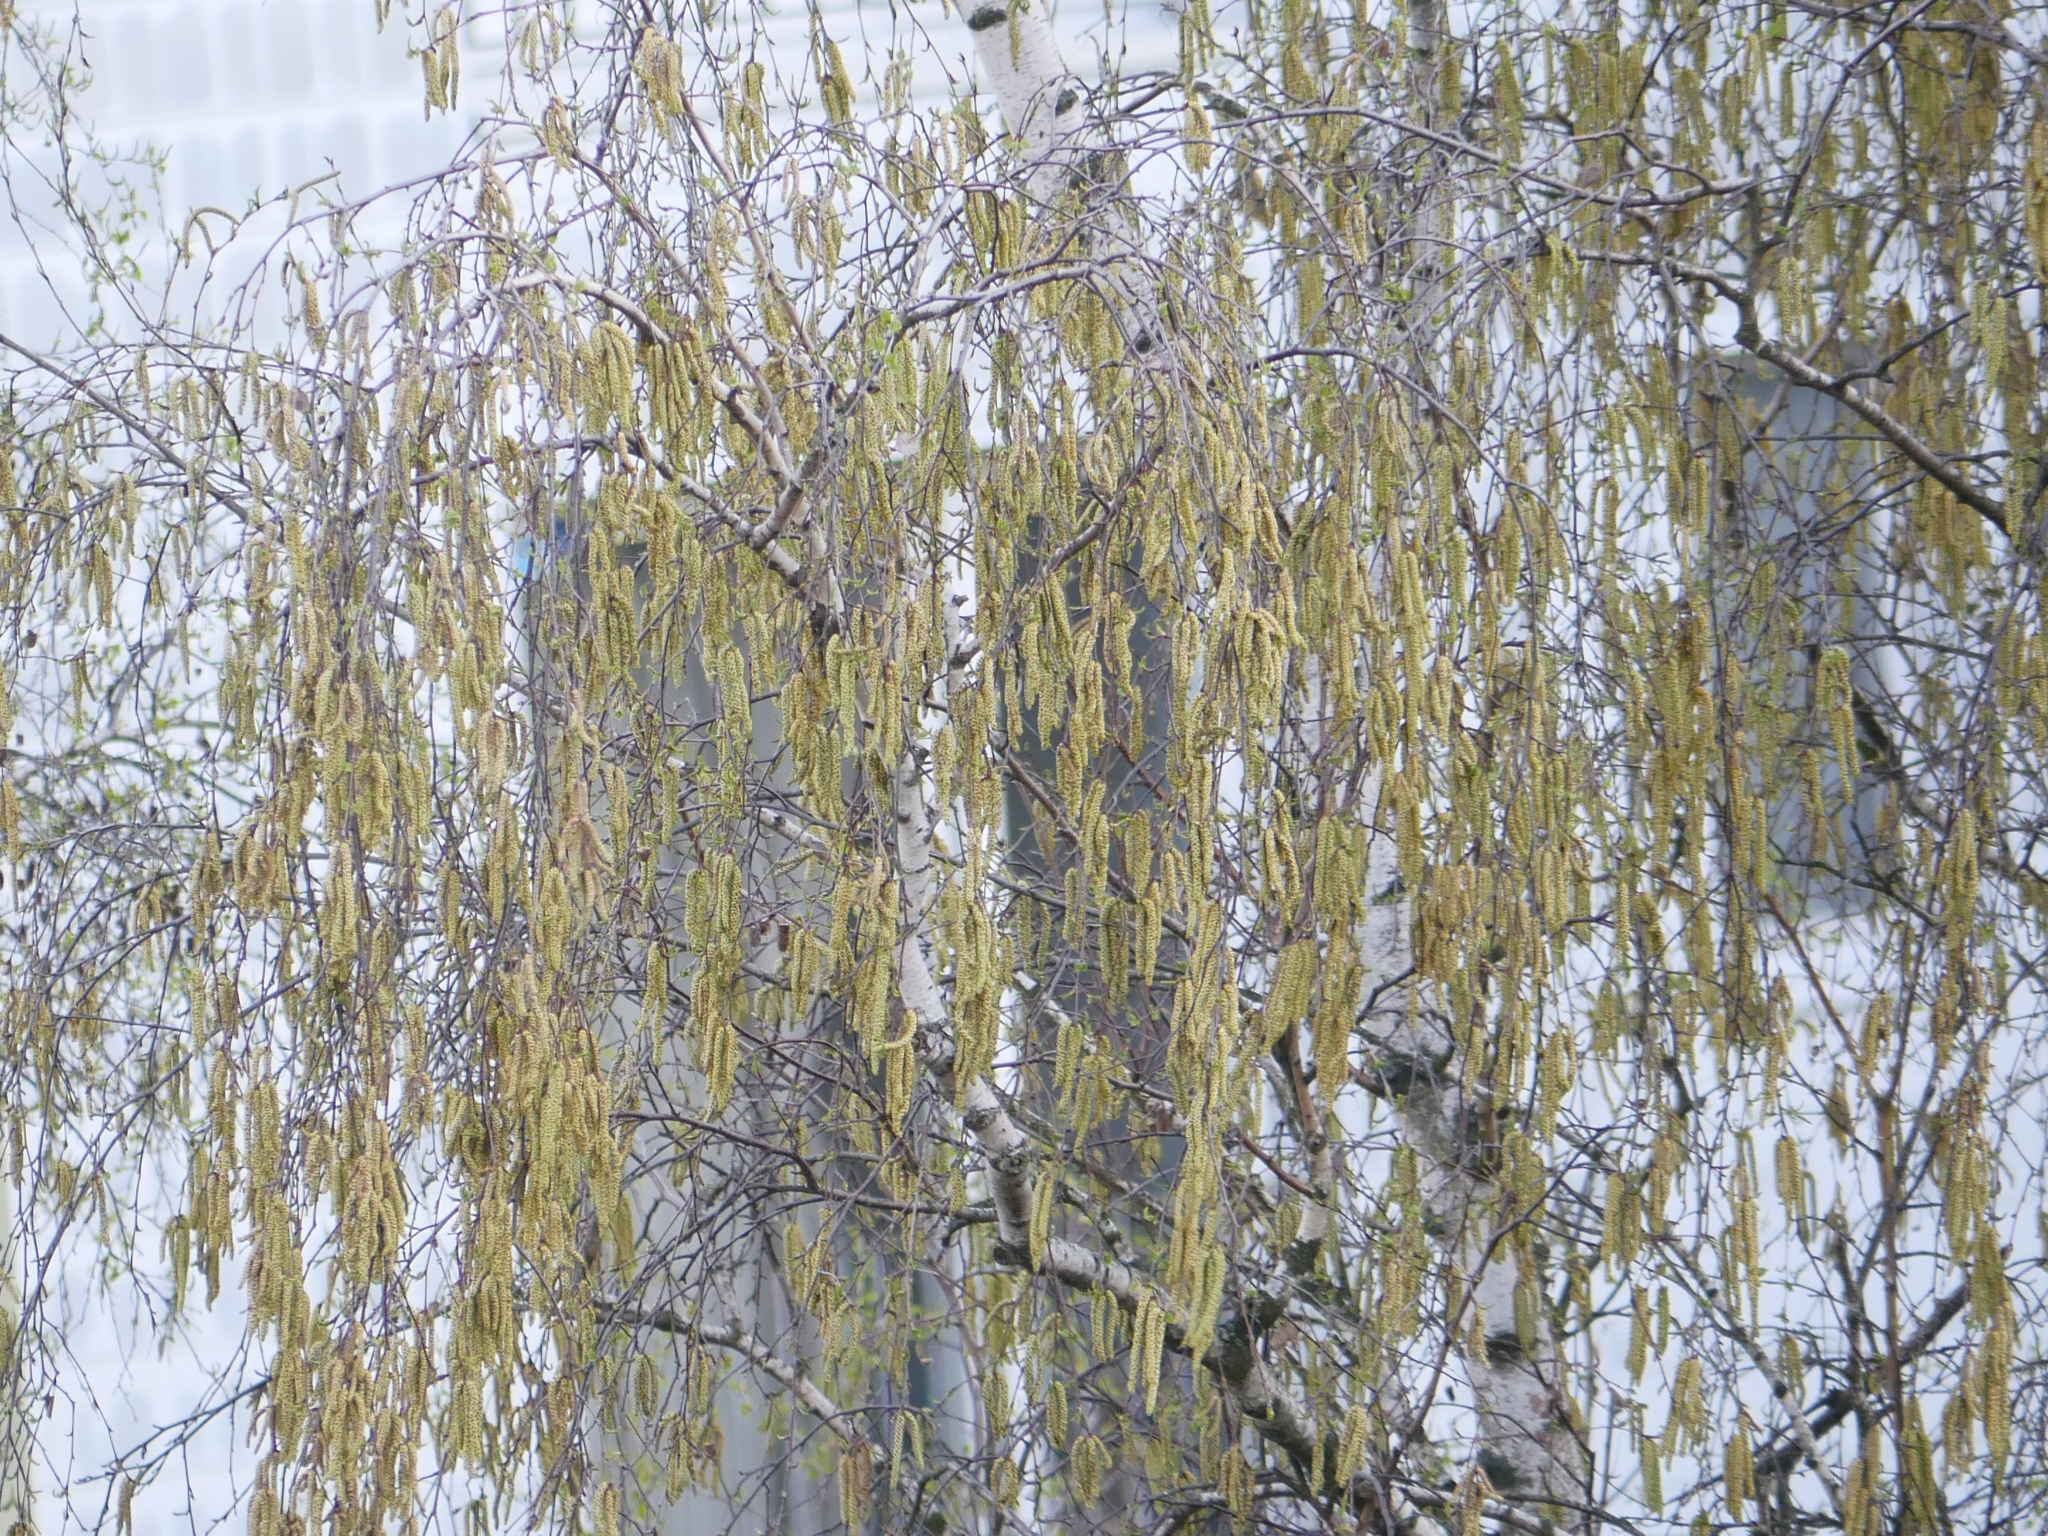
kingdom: Plantae
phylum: Tracheophyta
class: Magnoliopsida
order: Fagales
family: Betulaceae
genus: Betula
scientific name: Betula pendula
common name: Silver birch
